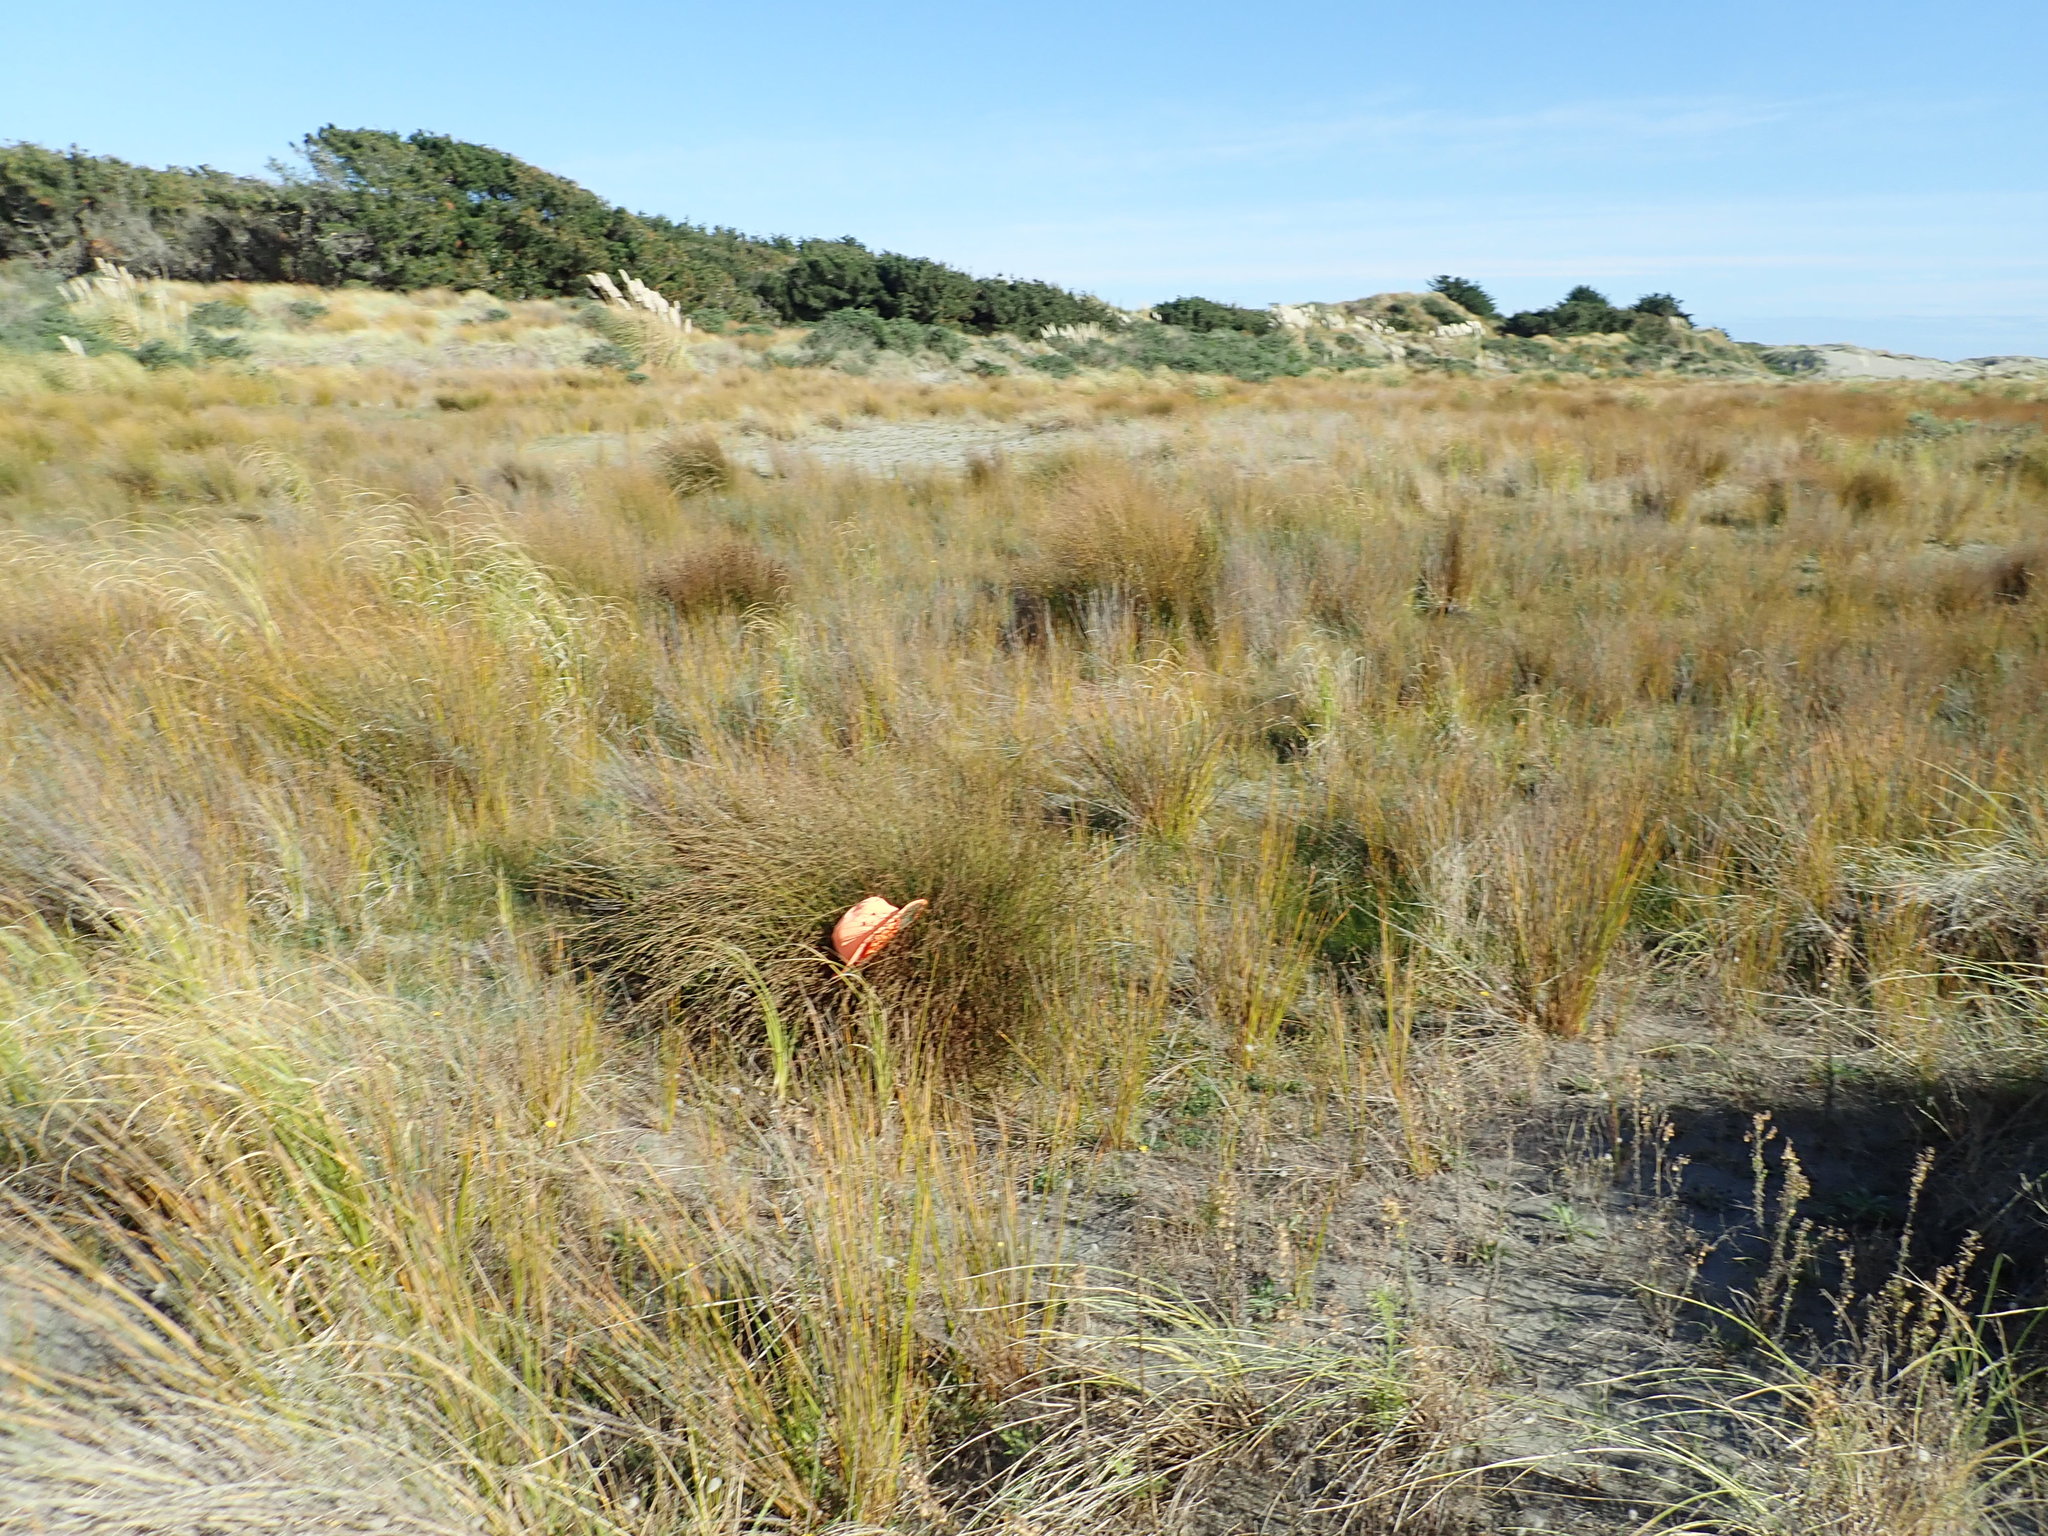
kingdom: Plantae
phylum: Tracheophyta
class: Liliopsida
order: Poales
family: Restionaceae
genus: Apodasmia
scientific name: Apodasmia similis
